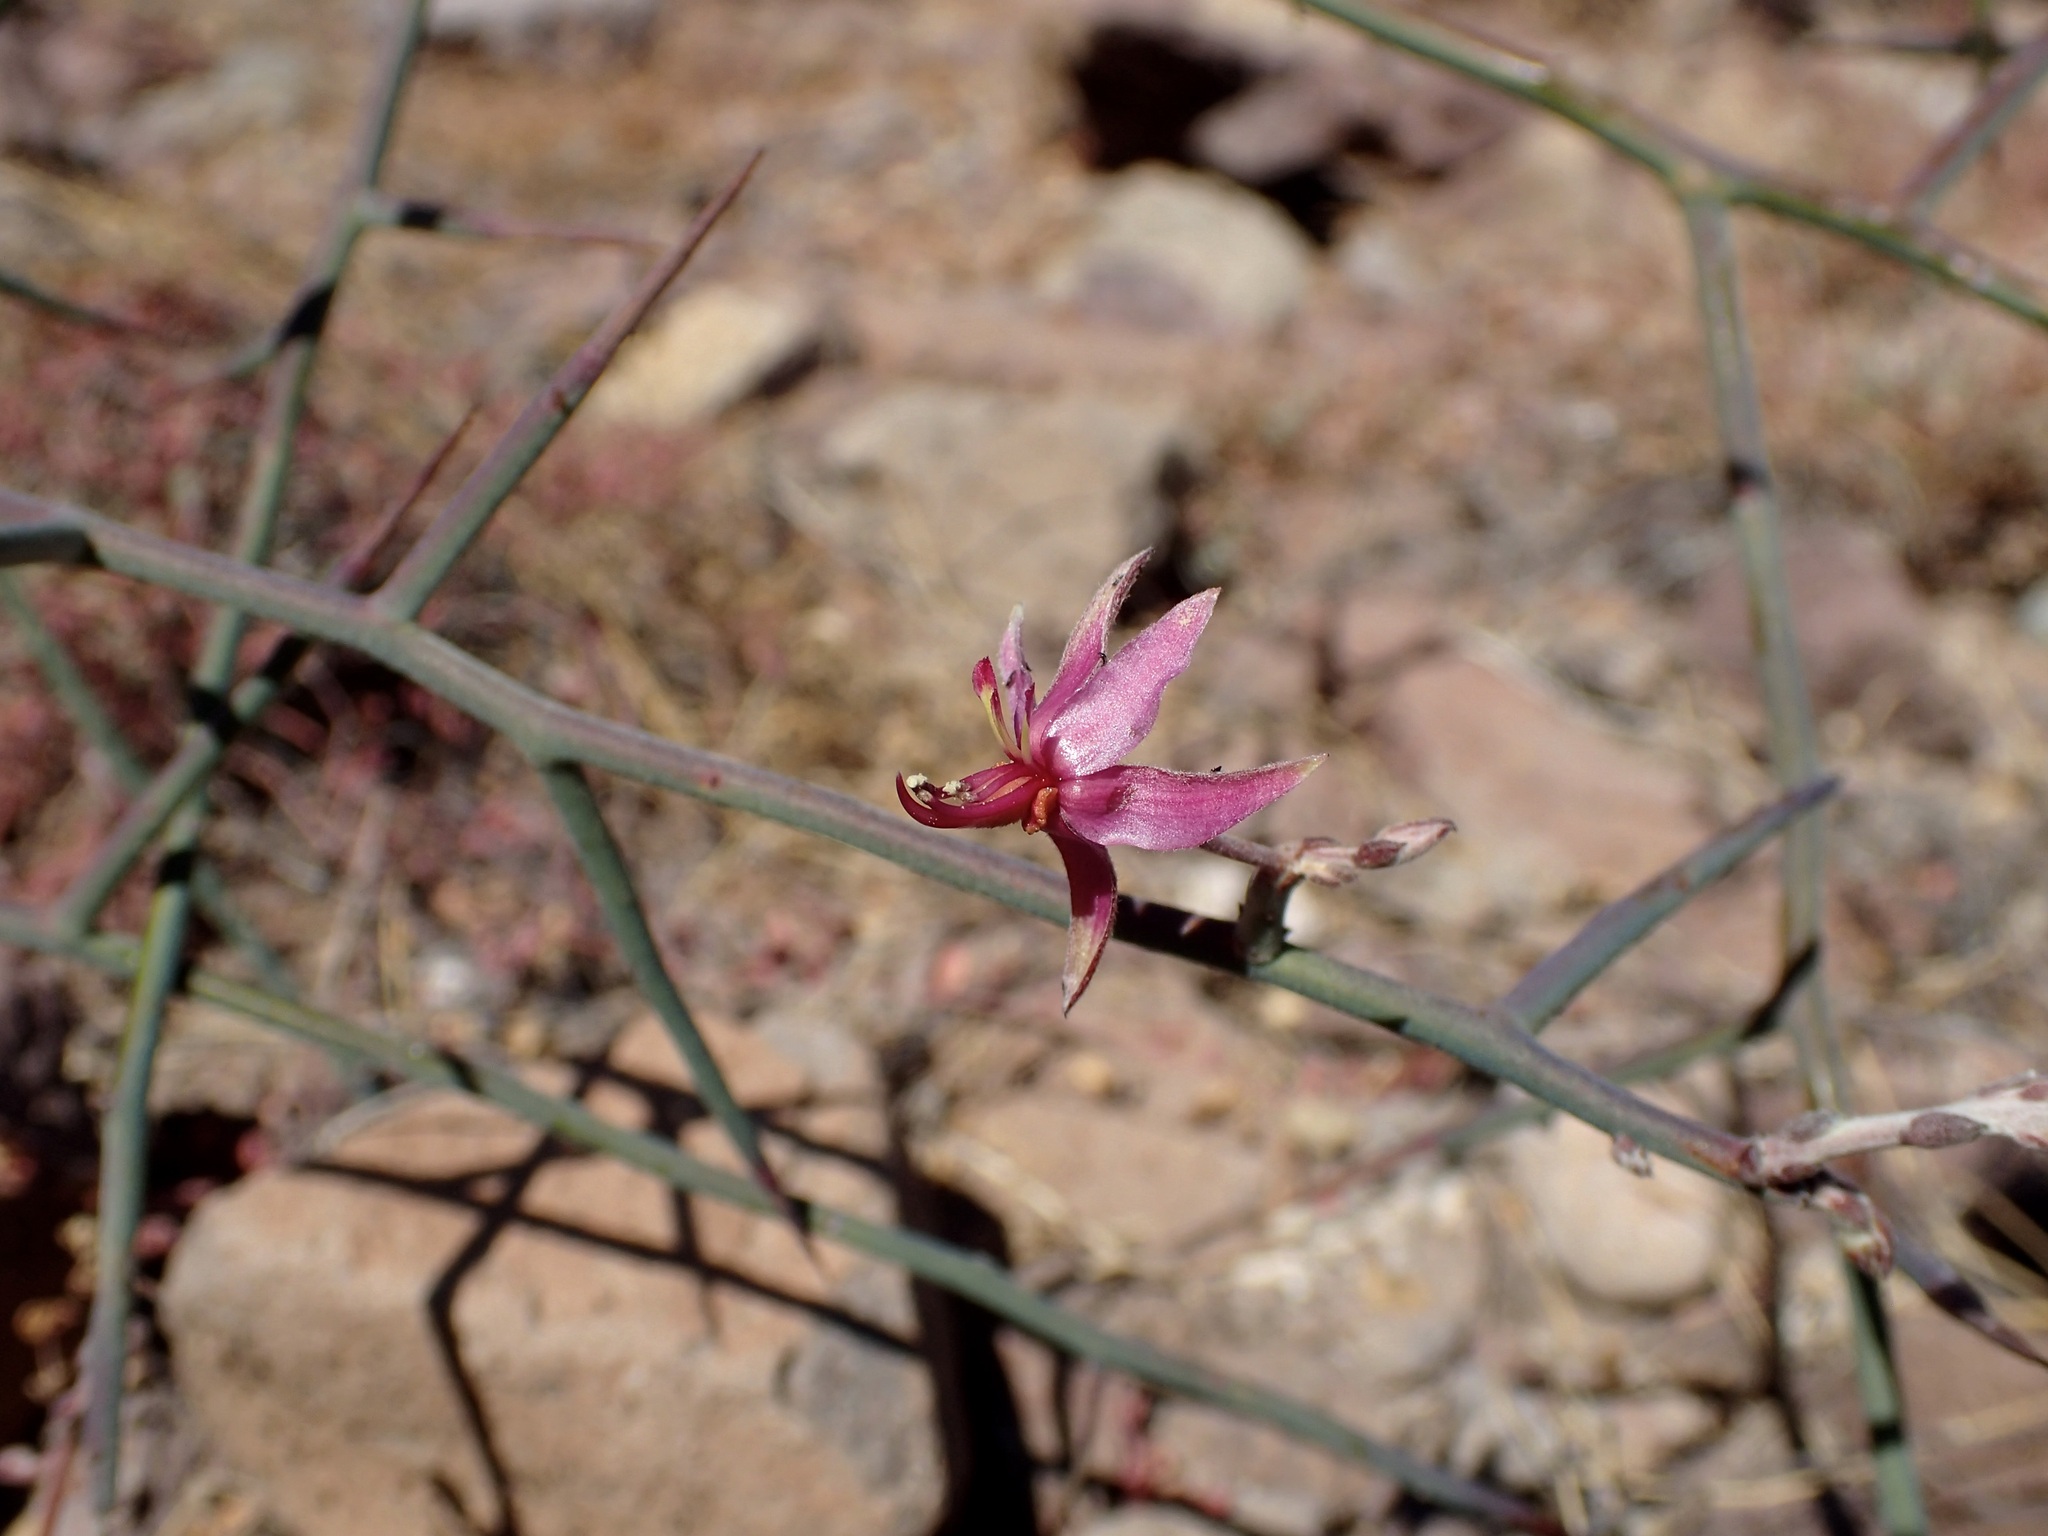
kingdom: Plantae
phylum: Tracheophyta
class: Magnoliopsida
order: Zygophyllales
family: Krameriaceae
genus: Krameria
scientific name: Krameria bicolor
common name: White ratany
